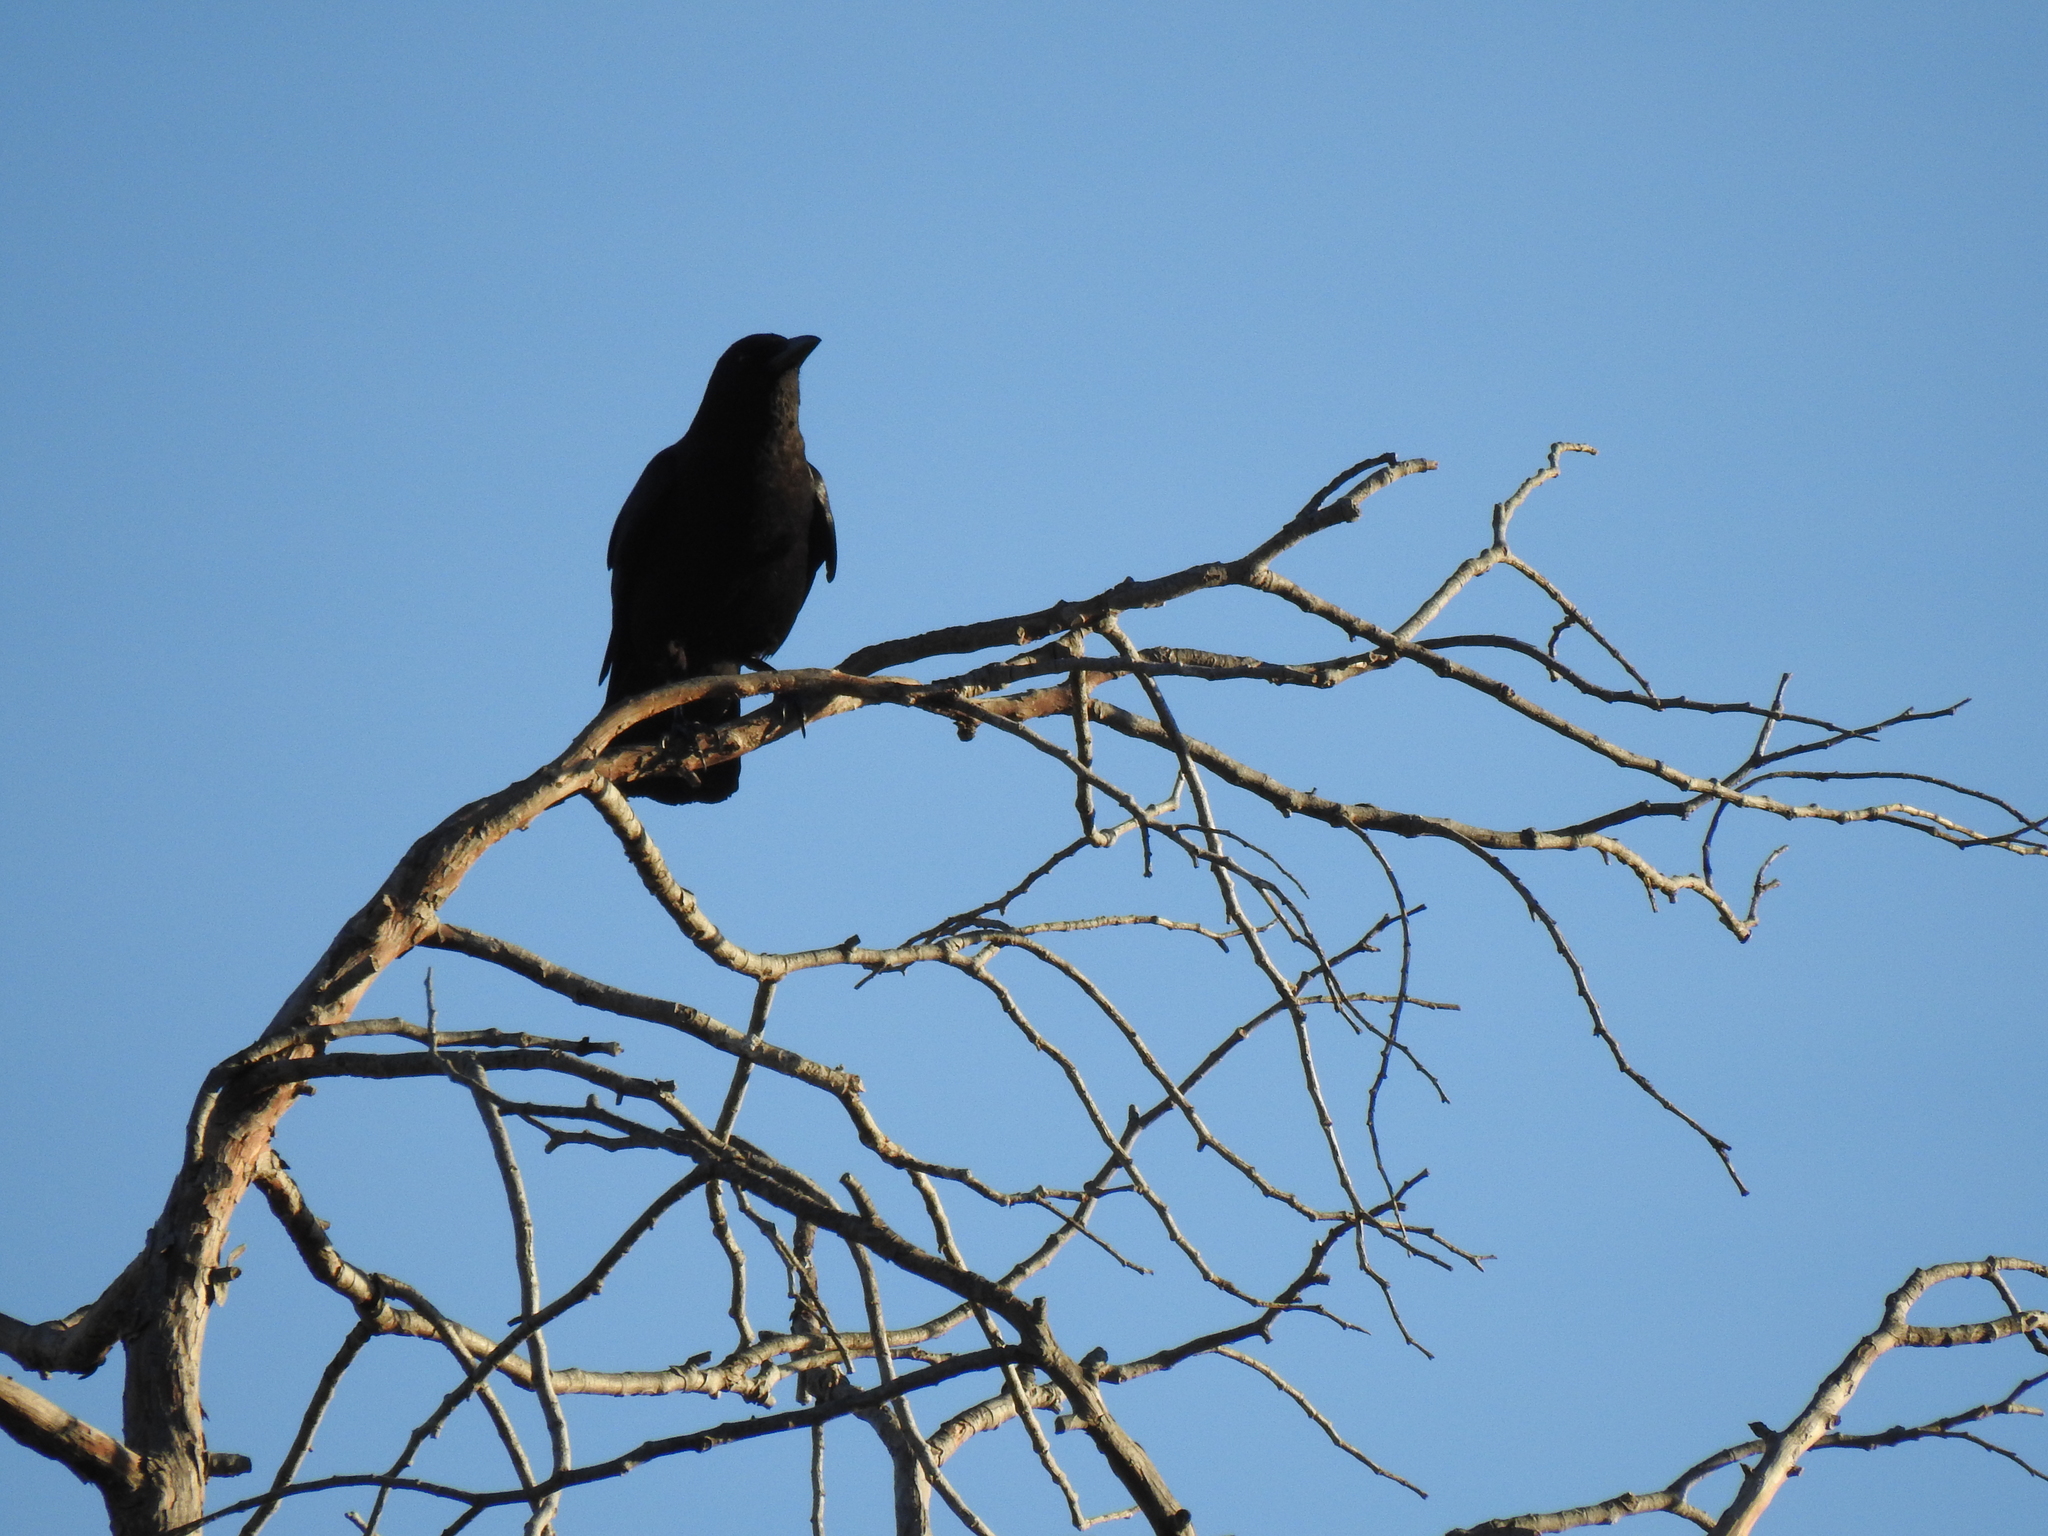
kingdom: Animalia
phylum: Chordata
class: Aves
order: Passeriformes
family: Corvidae
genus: Corvus
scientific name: Corvus brachyrhynchos
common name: American crow
